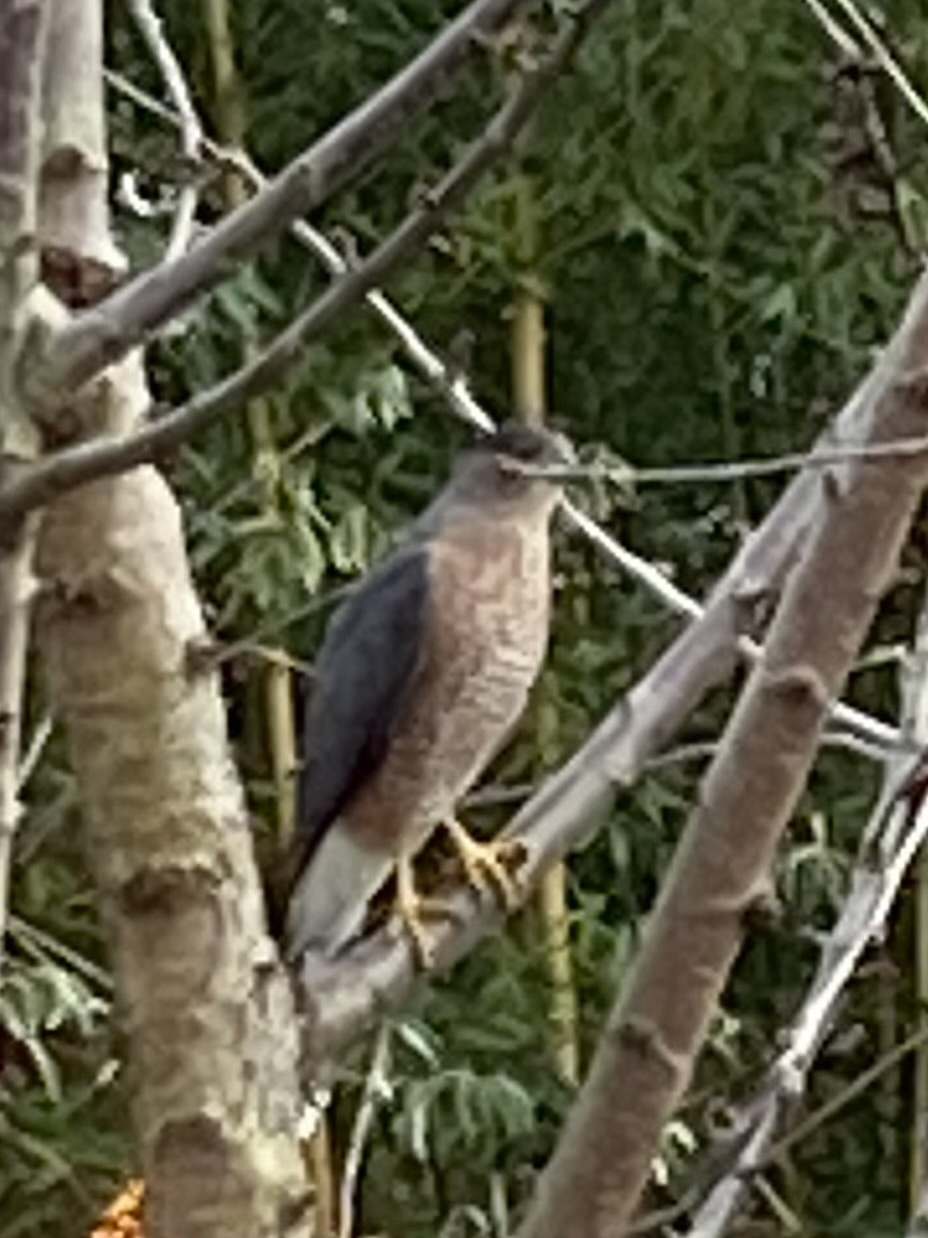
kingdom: Animalia
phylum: Chordata
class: Aves
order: Accipitriformes
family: Accipitridae
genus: Accipiter
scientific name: Accipiter cooperii
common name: Cooper's hawk
